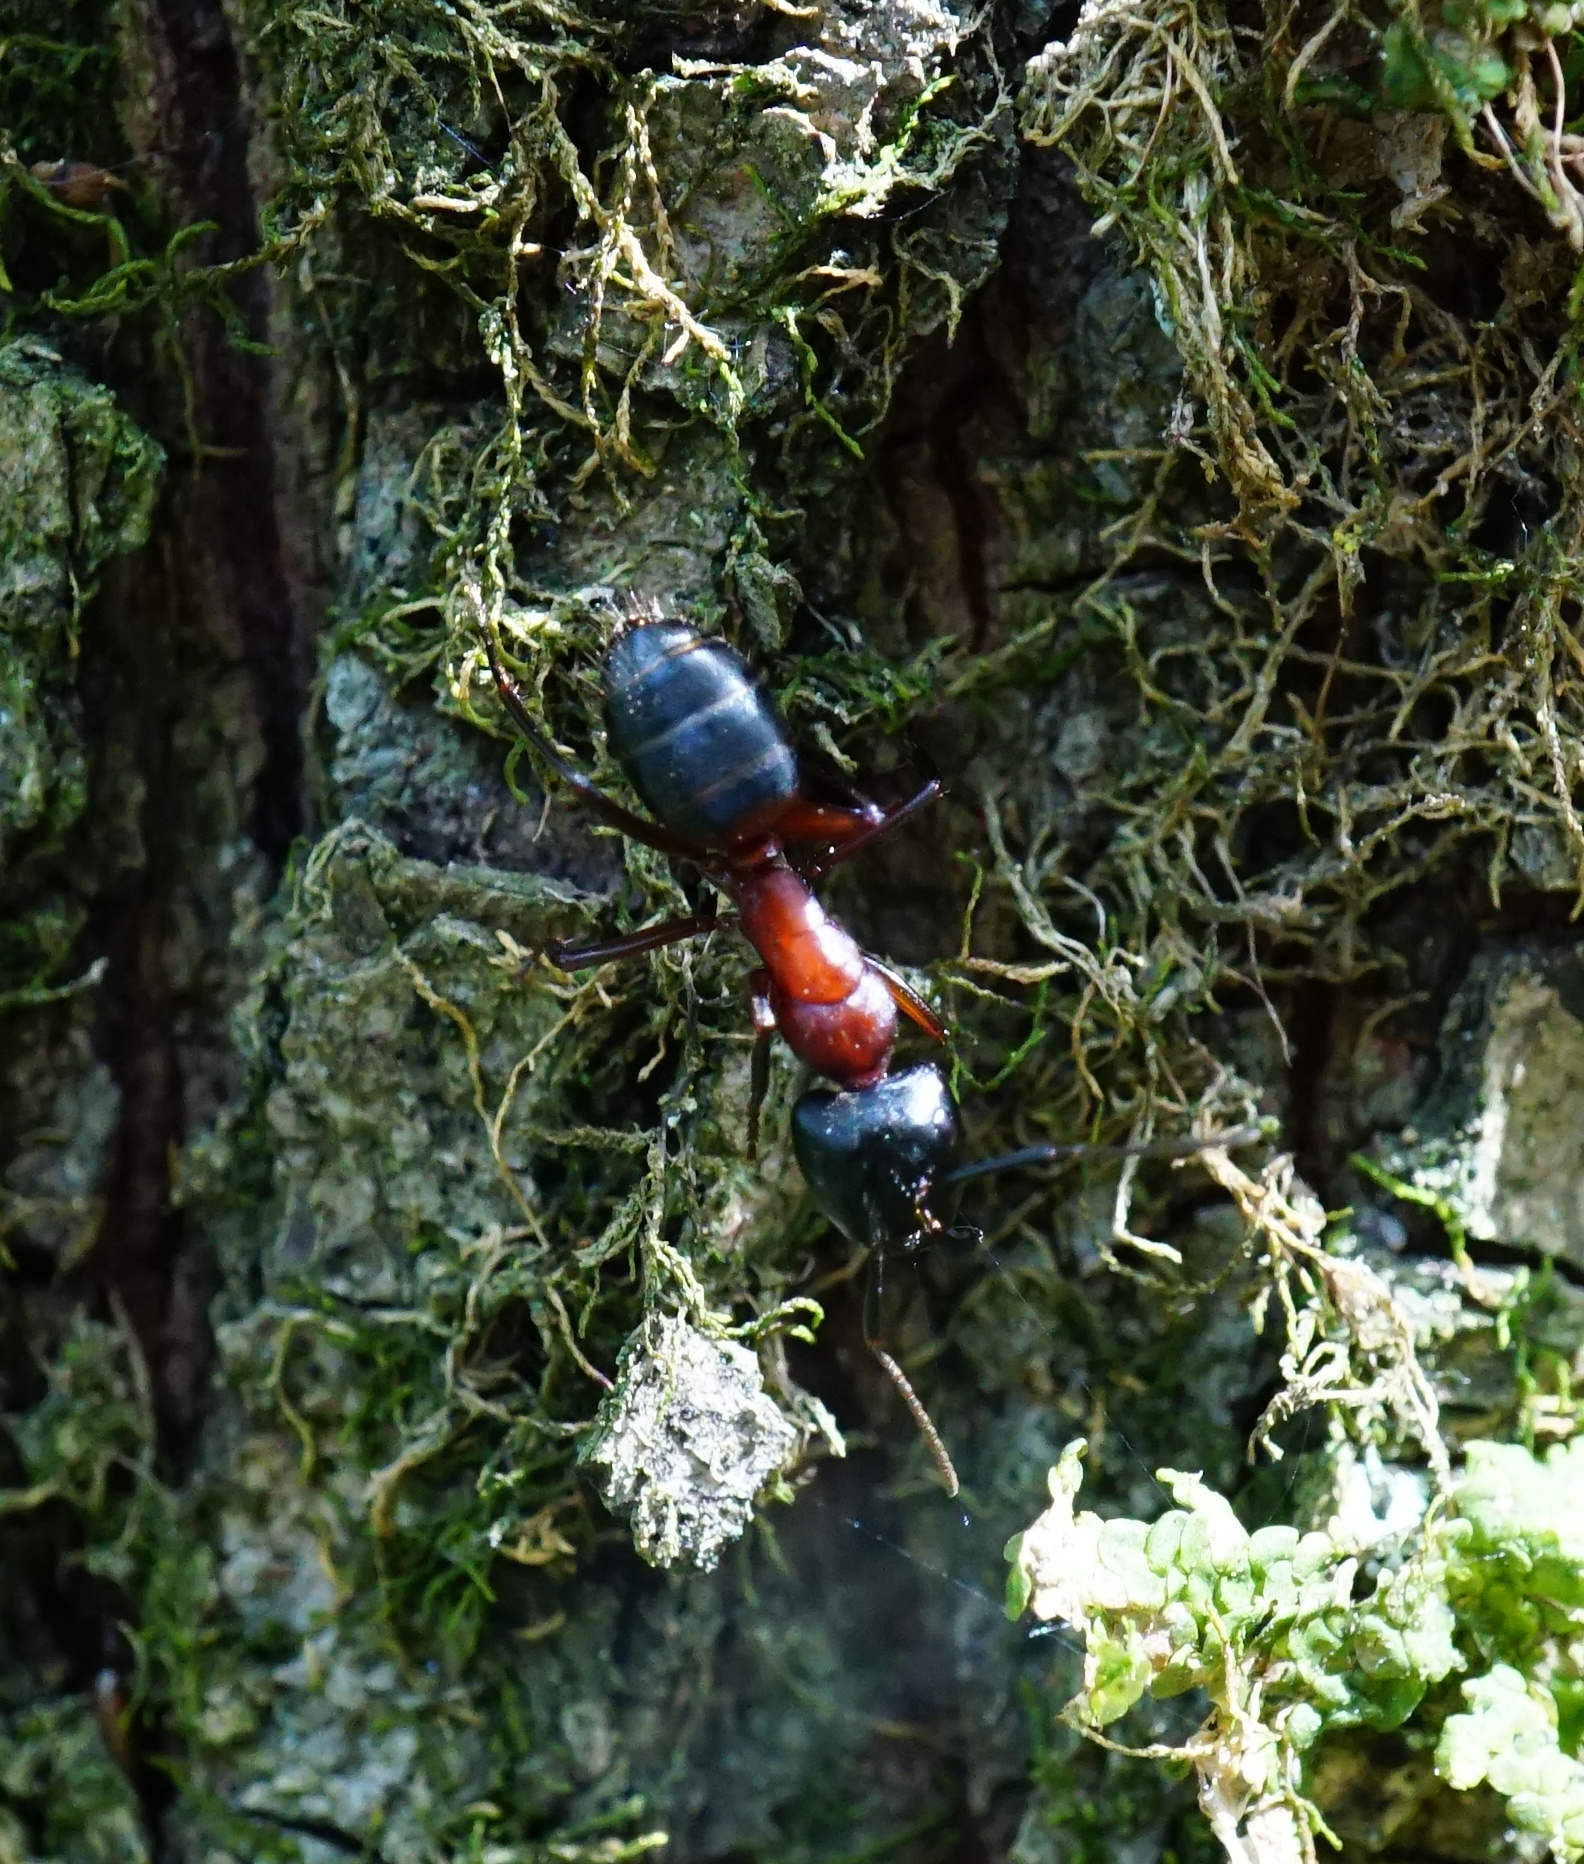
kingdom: Animalia
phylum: Arthropoda
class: Insecta
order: Hymenoptera
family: Formicidae
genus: Camponotus
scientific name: Camponotus ligniperdus
